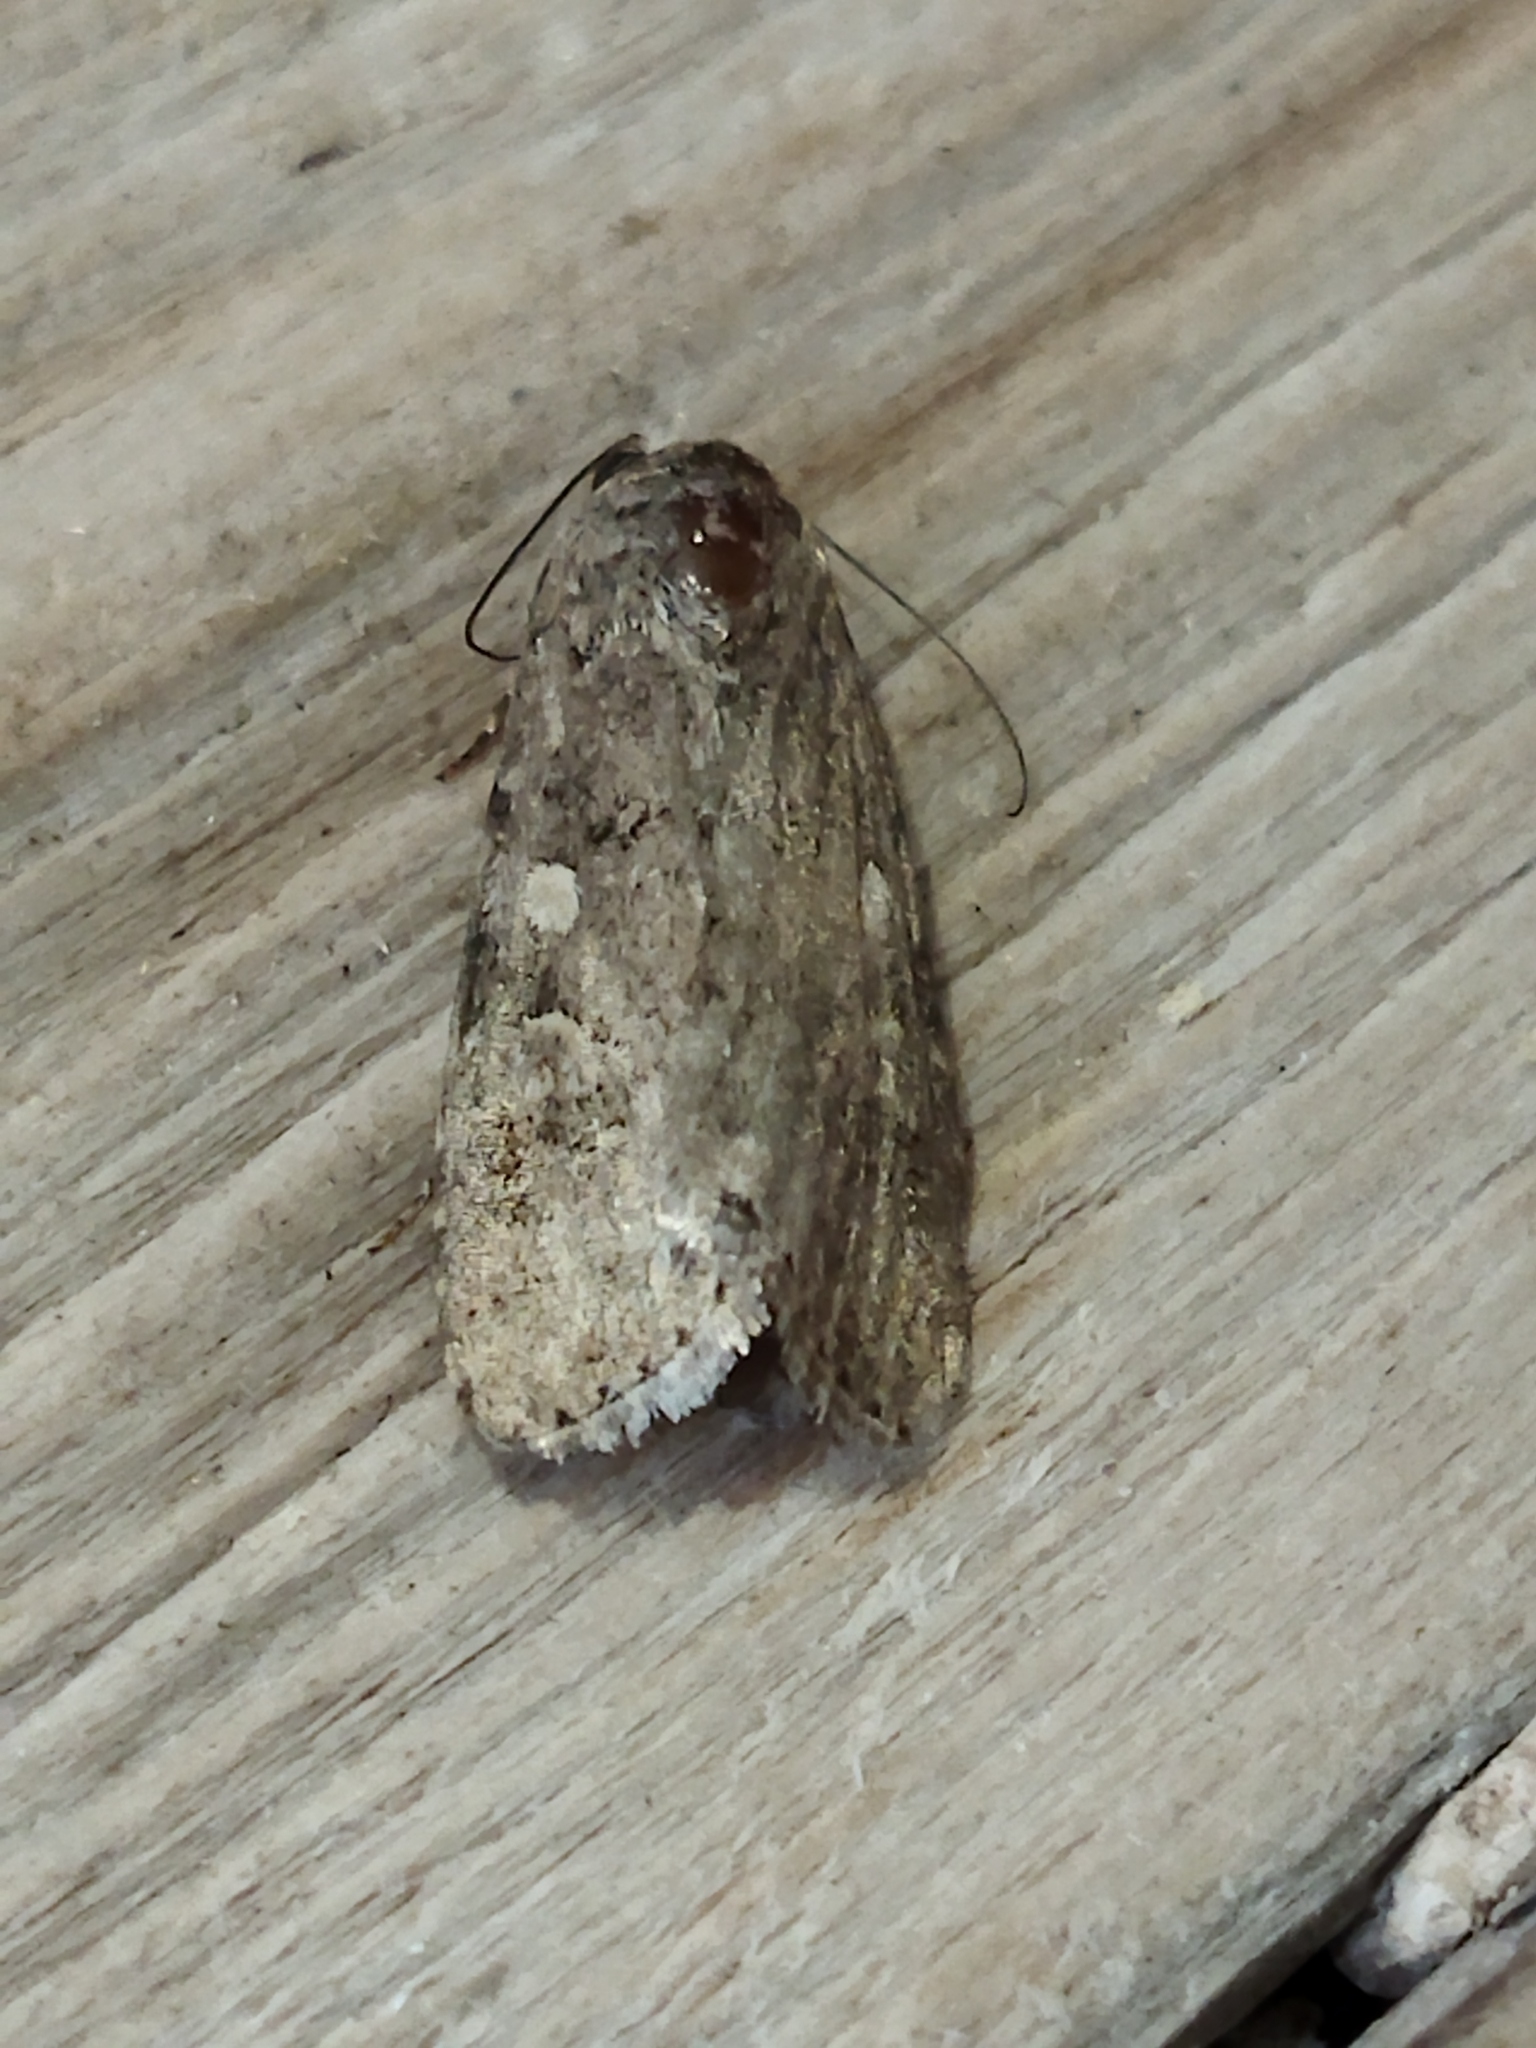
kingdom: Animalia
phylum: Arthropoda
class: Insecta
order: Lepidoptera
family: Noctuidae
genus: Spodoptera
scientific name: Spodoptera exigua
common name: Beet armyworm
